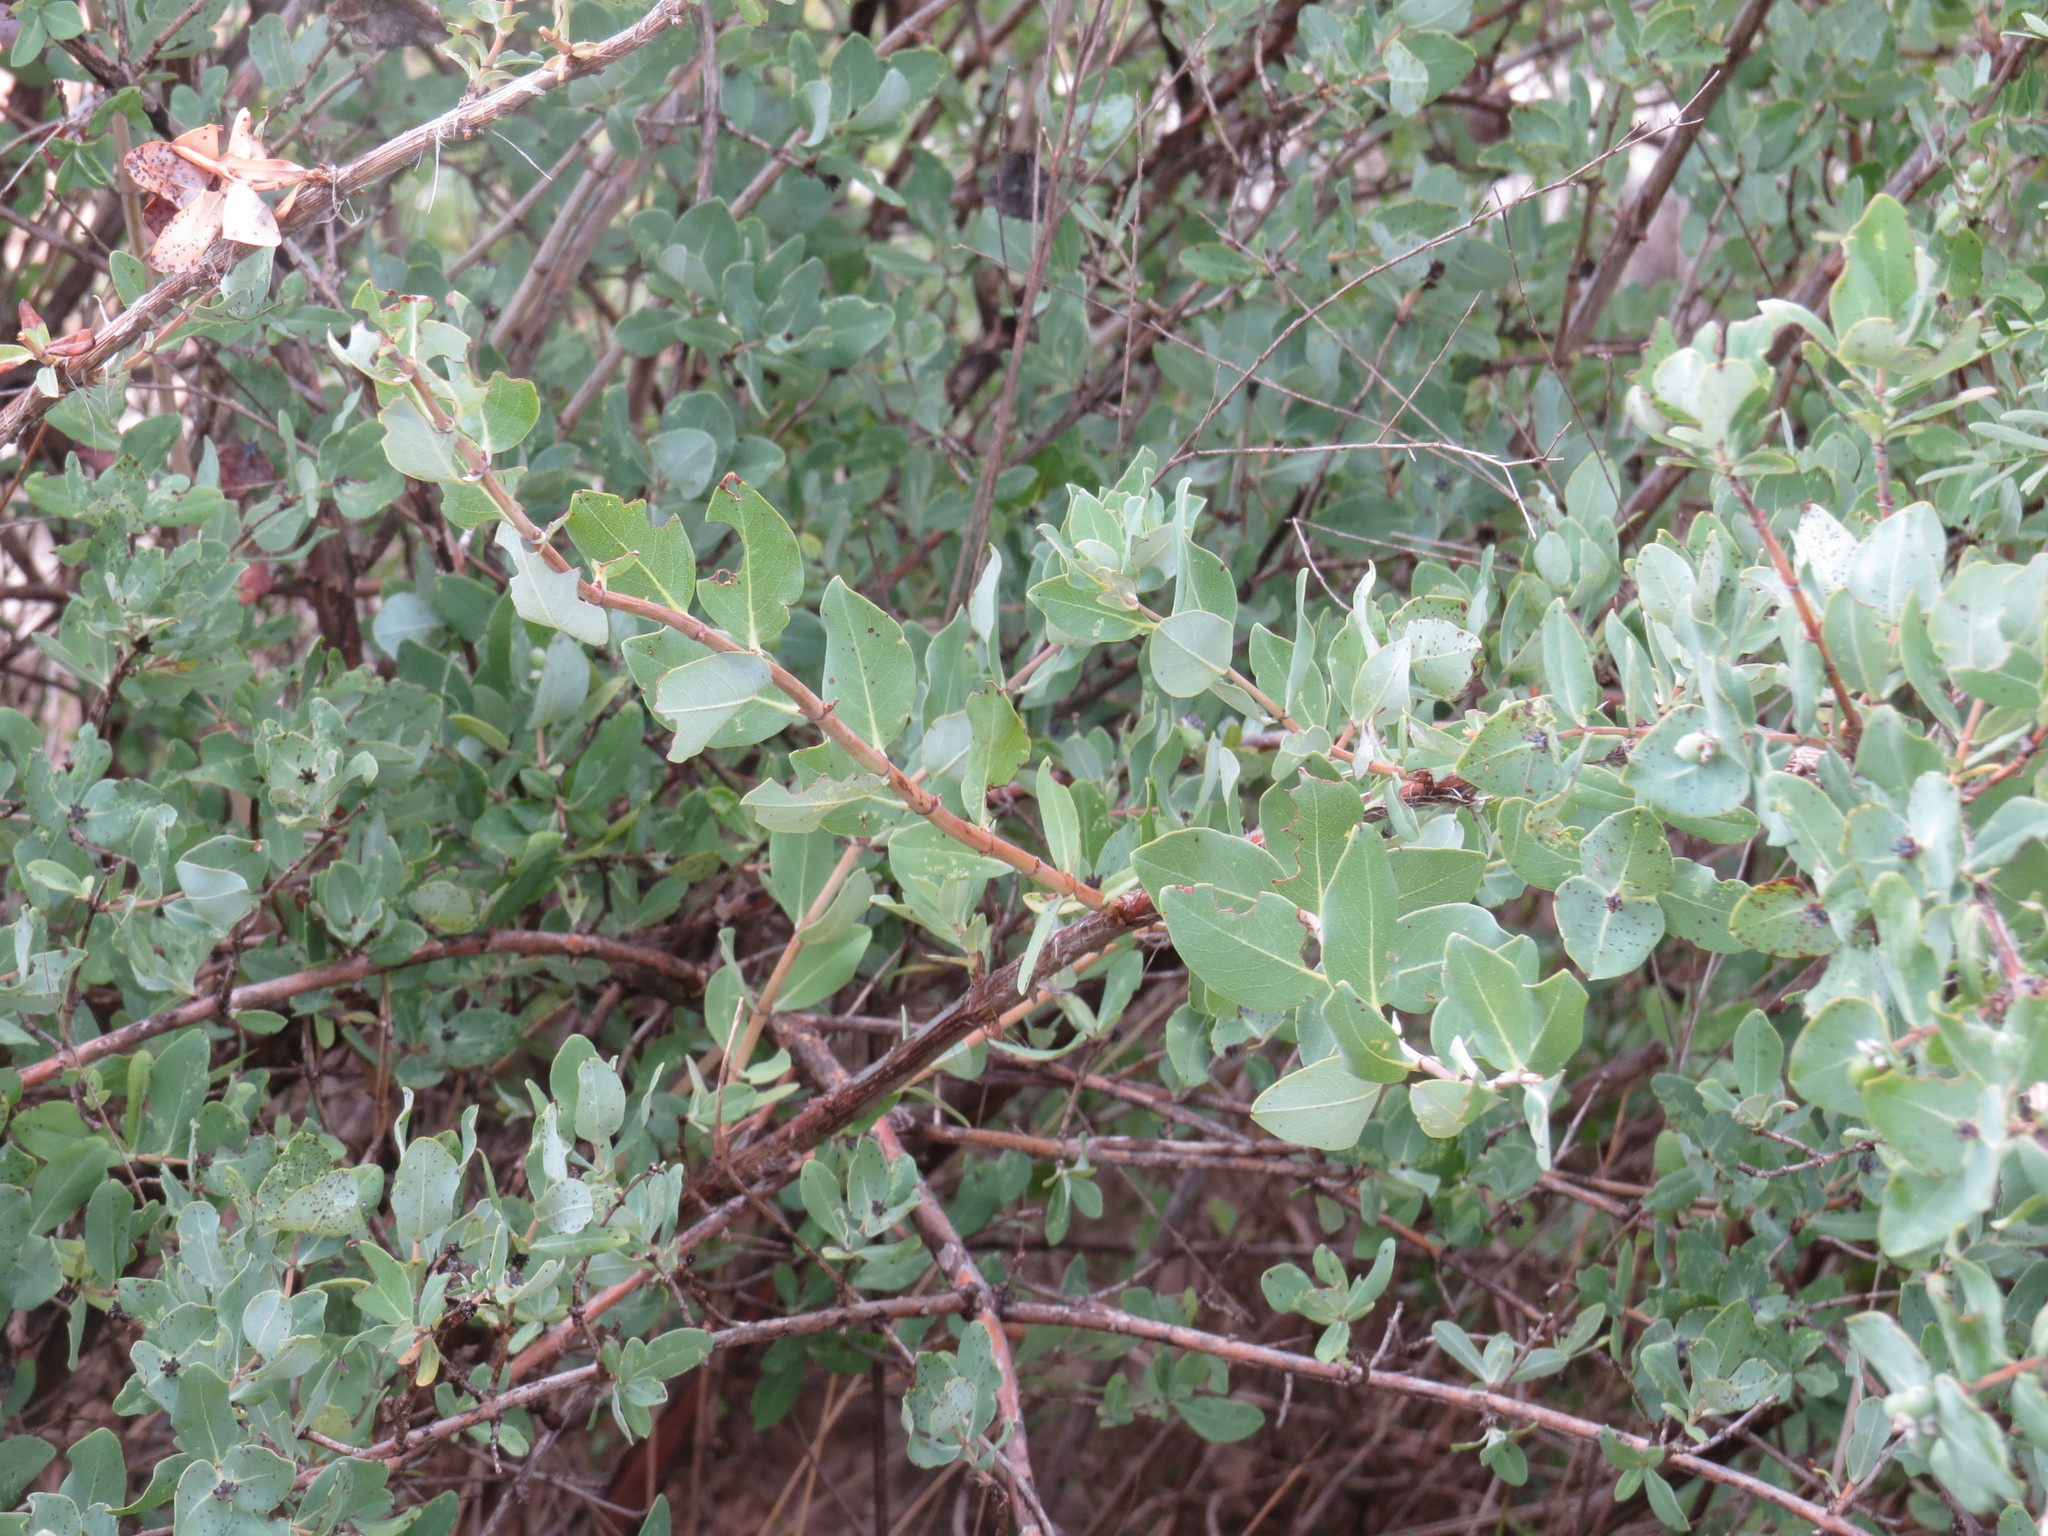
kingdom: Plantae
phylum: Tracheophyta
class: Magnoliopsida
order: Dipsacales
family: Caprifoliaceae
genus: Lonicera
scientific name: Lonicera albiflora
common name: White honeysuckle
